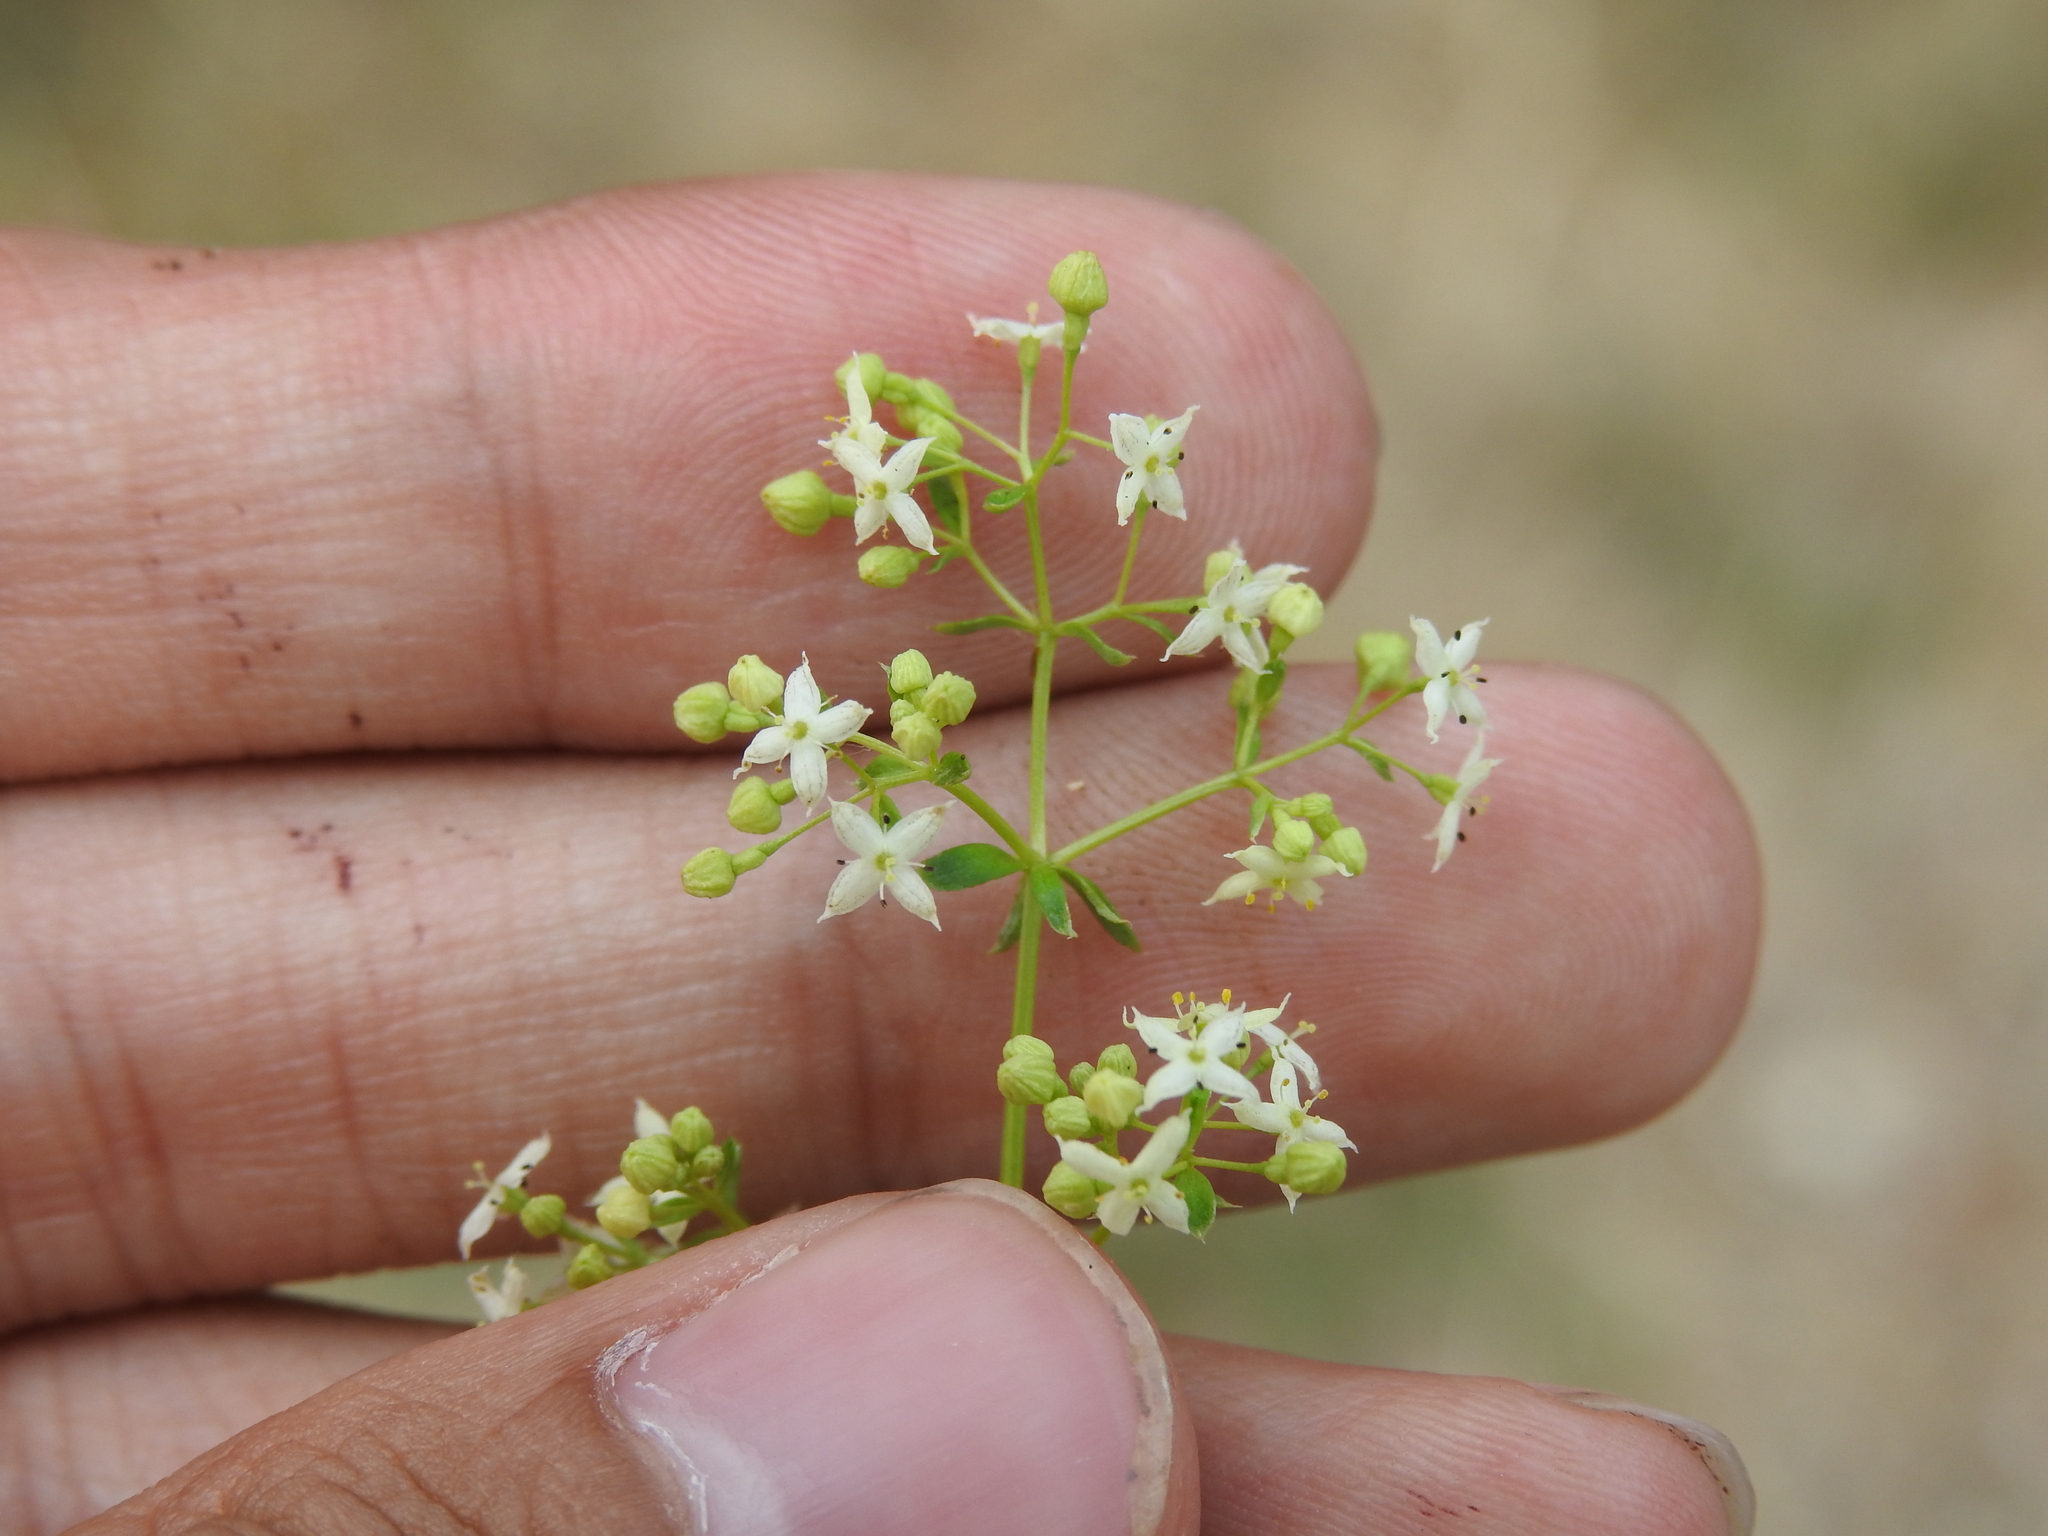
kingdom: Plantae
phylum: Tracheophyta
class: Magnoliopsida
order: Gentianales
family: Rubiaceae
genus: Galium
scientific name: Galium mollugo
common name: Hedge bedstraw
